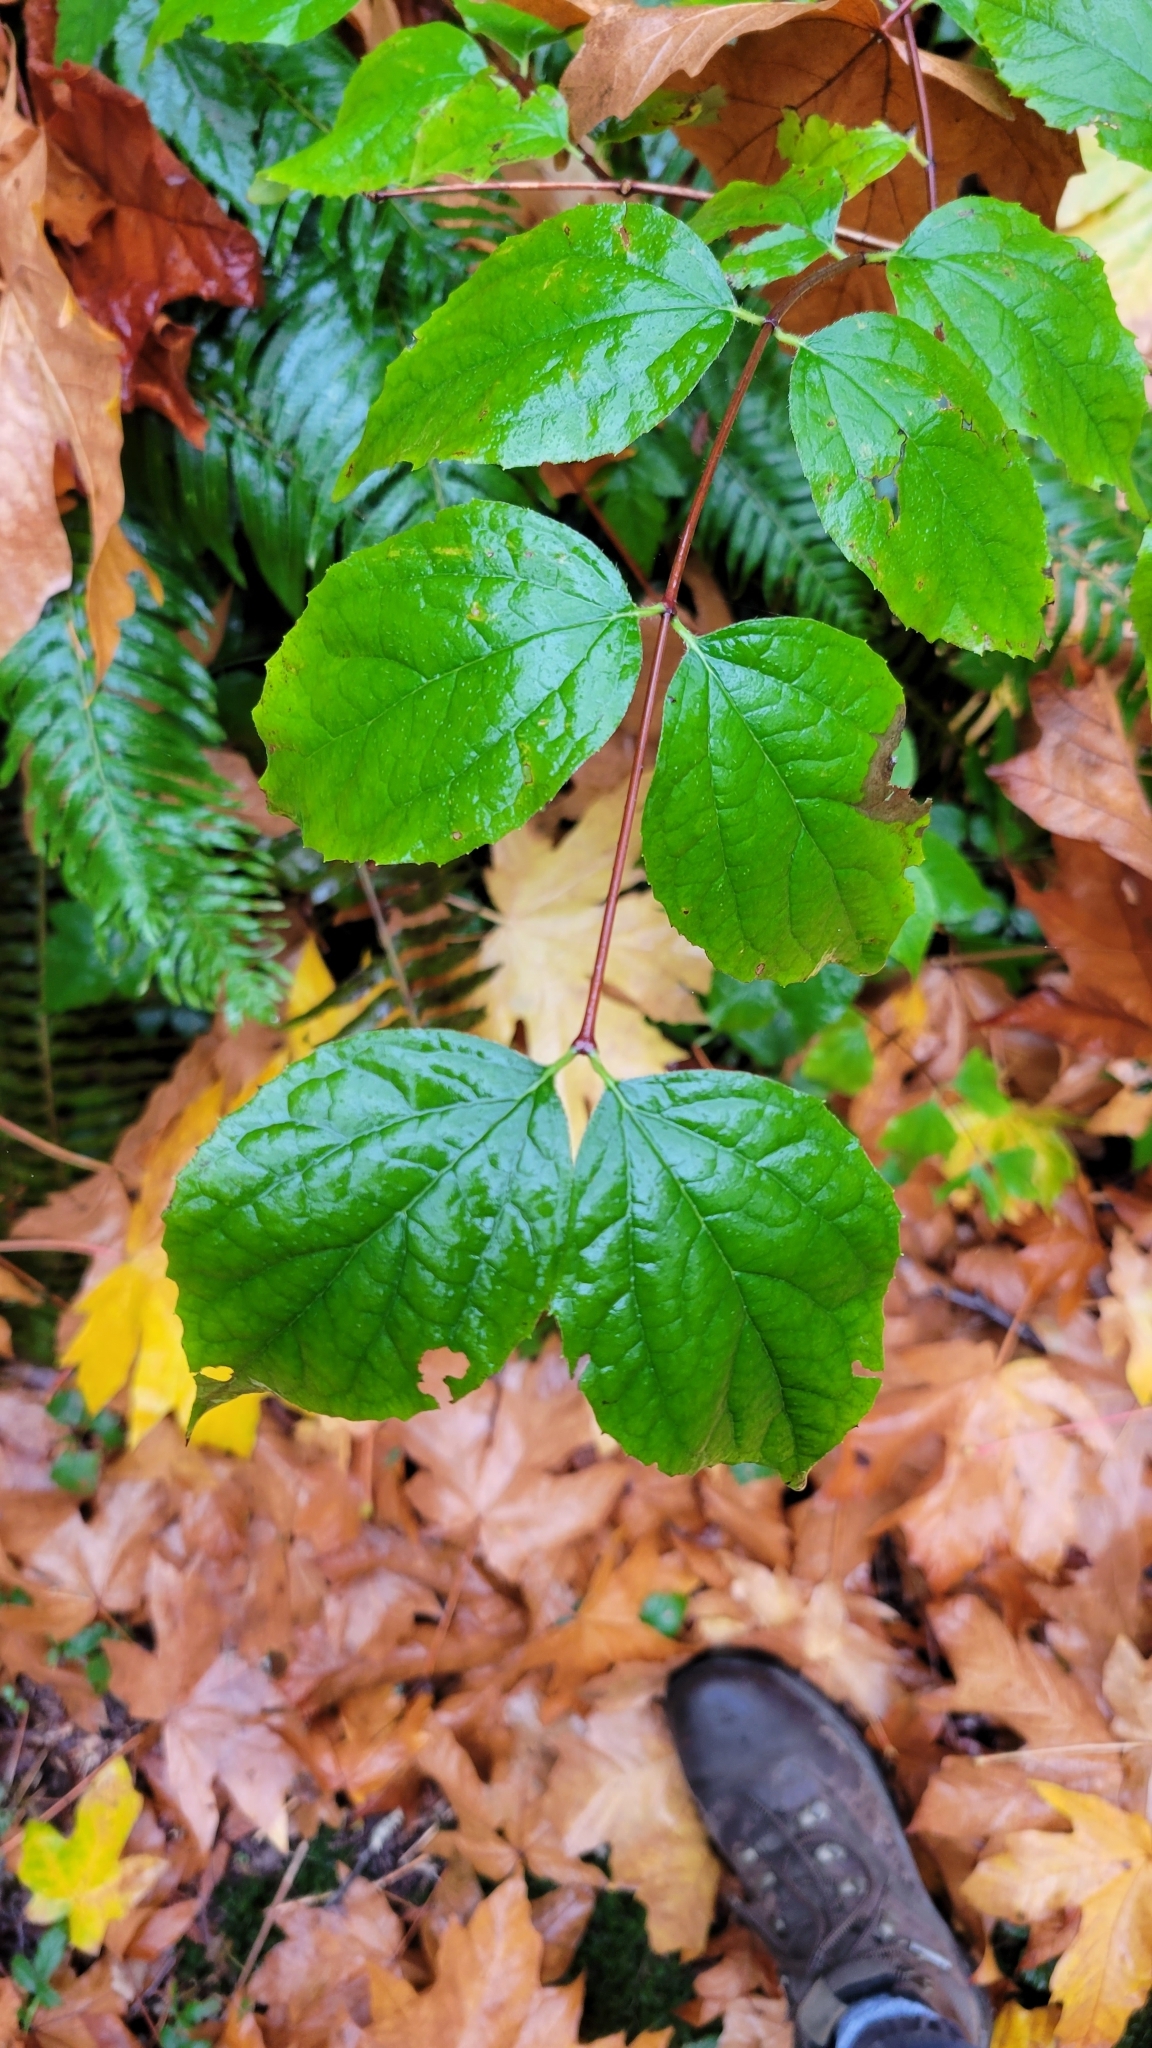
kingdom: Plantae
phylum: Tracheophyta
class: Magnoliopsida
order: Cornales
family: Hydrangeaceae
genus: Philadelphus
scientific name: Philadelphus coronarius
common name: Mock orange
